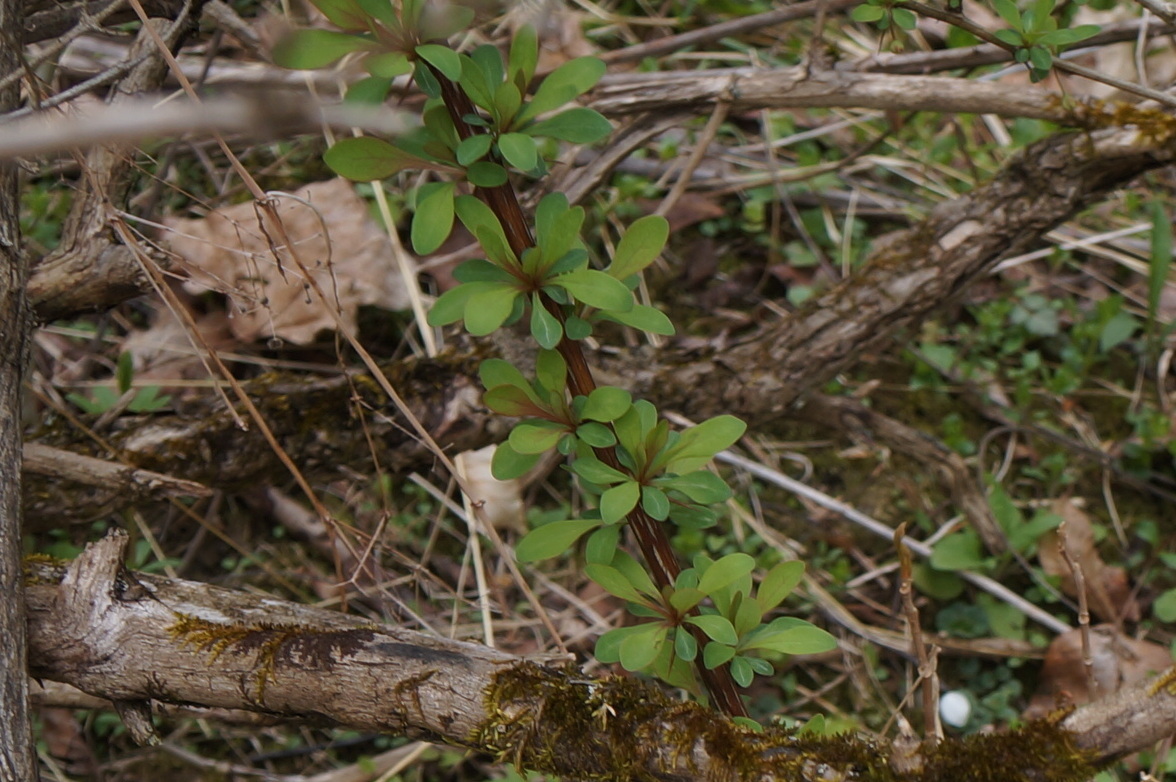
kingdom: Plantae
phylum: Tracheophyta
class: Magnoliopsida
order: Ranunculales
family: Berberidaceae
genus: Berberis
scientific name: Berberis thunbergii
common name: Japanese barberry
